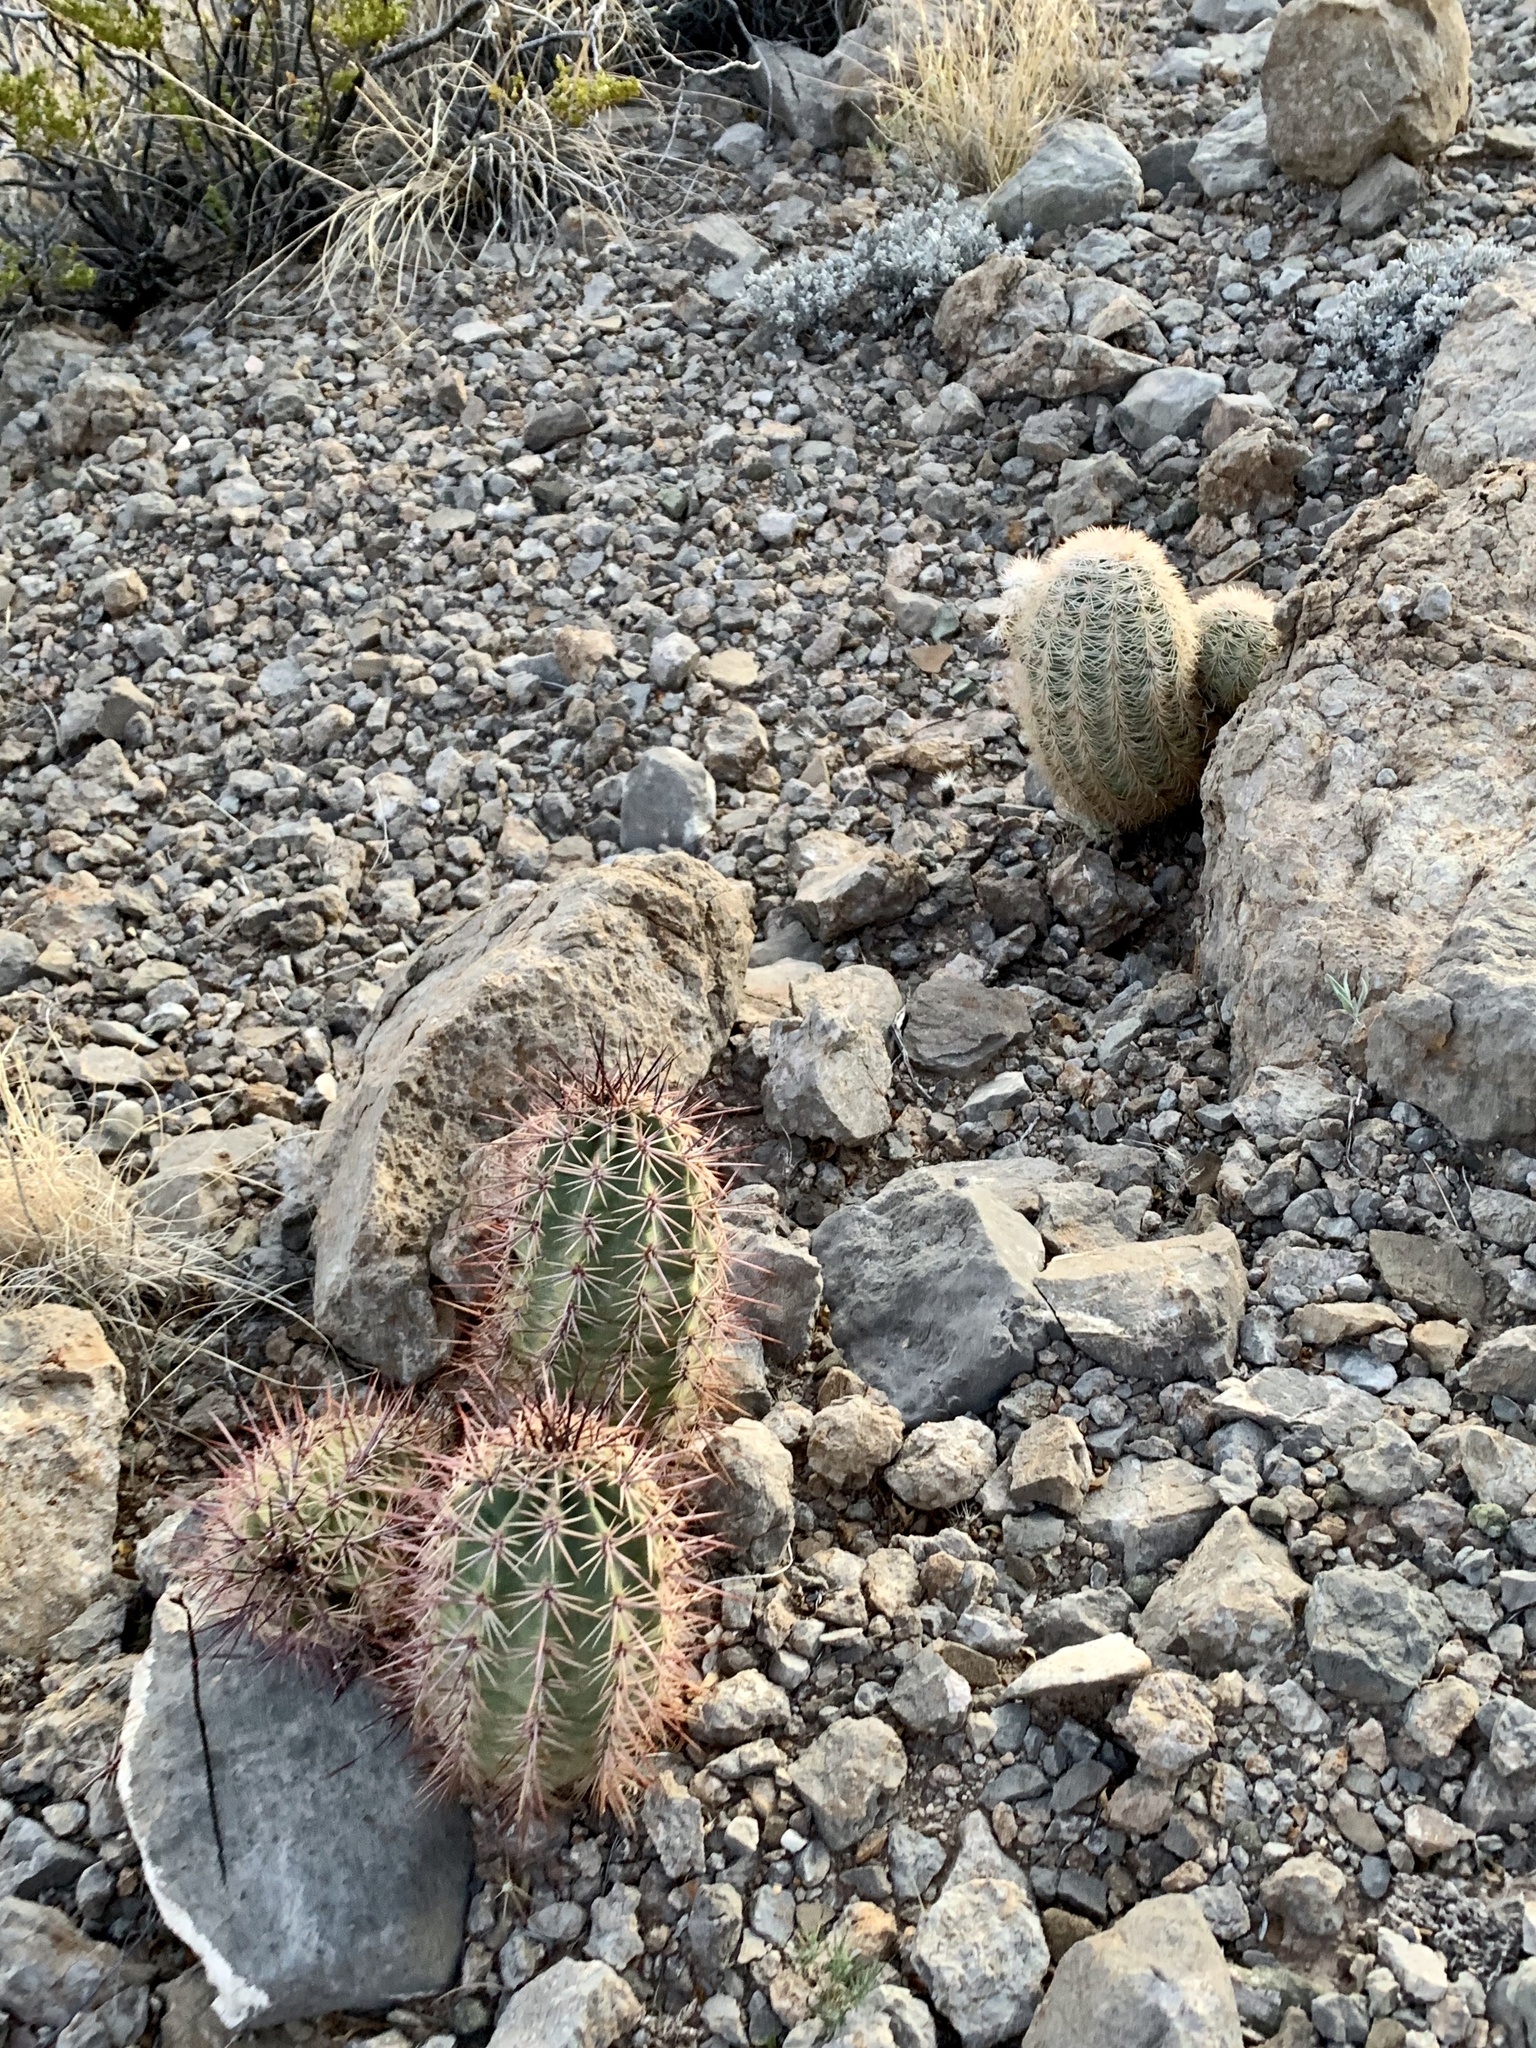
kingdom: Plantae
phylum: Tracheophyta
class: Magnoliopsida
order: Caryophyllales
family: Cactaceae
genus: Echinocereus
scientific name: Echinocereus coccineus
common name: Scarlet hedgehog cactus
